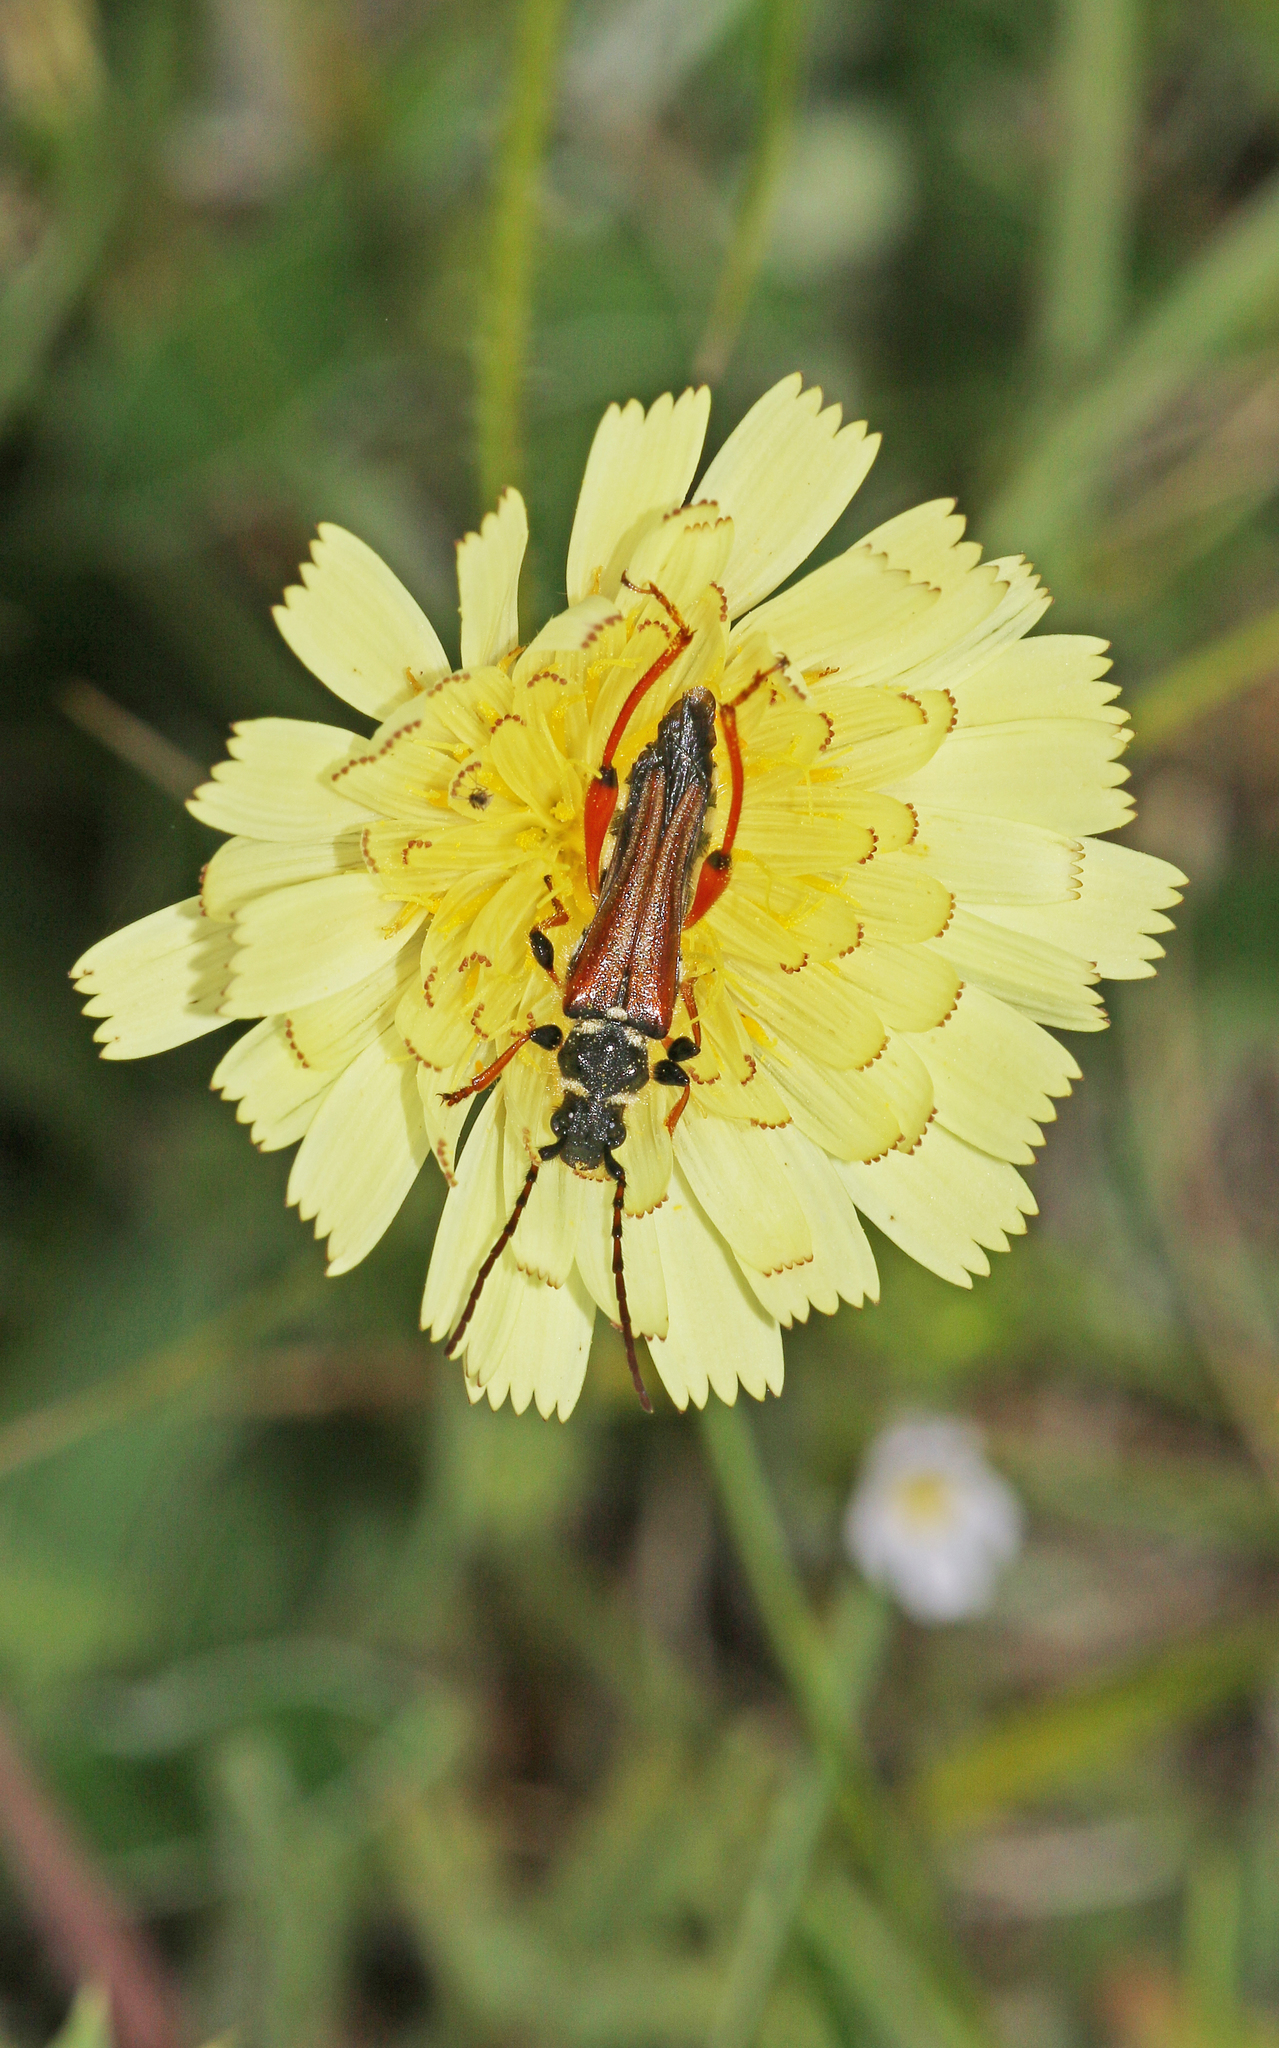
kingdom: Animalia
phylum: Arthropoda
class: Insecta
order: Coleoptera
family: Cerambycidae
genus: Stenopterus
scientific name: Stenopterus rufus
